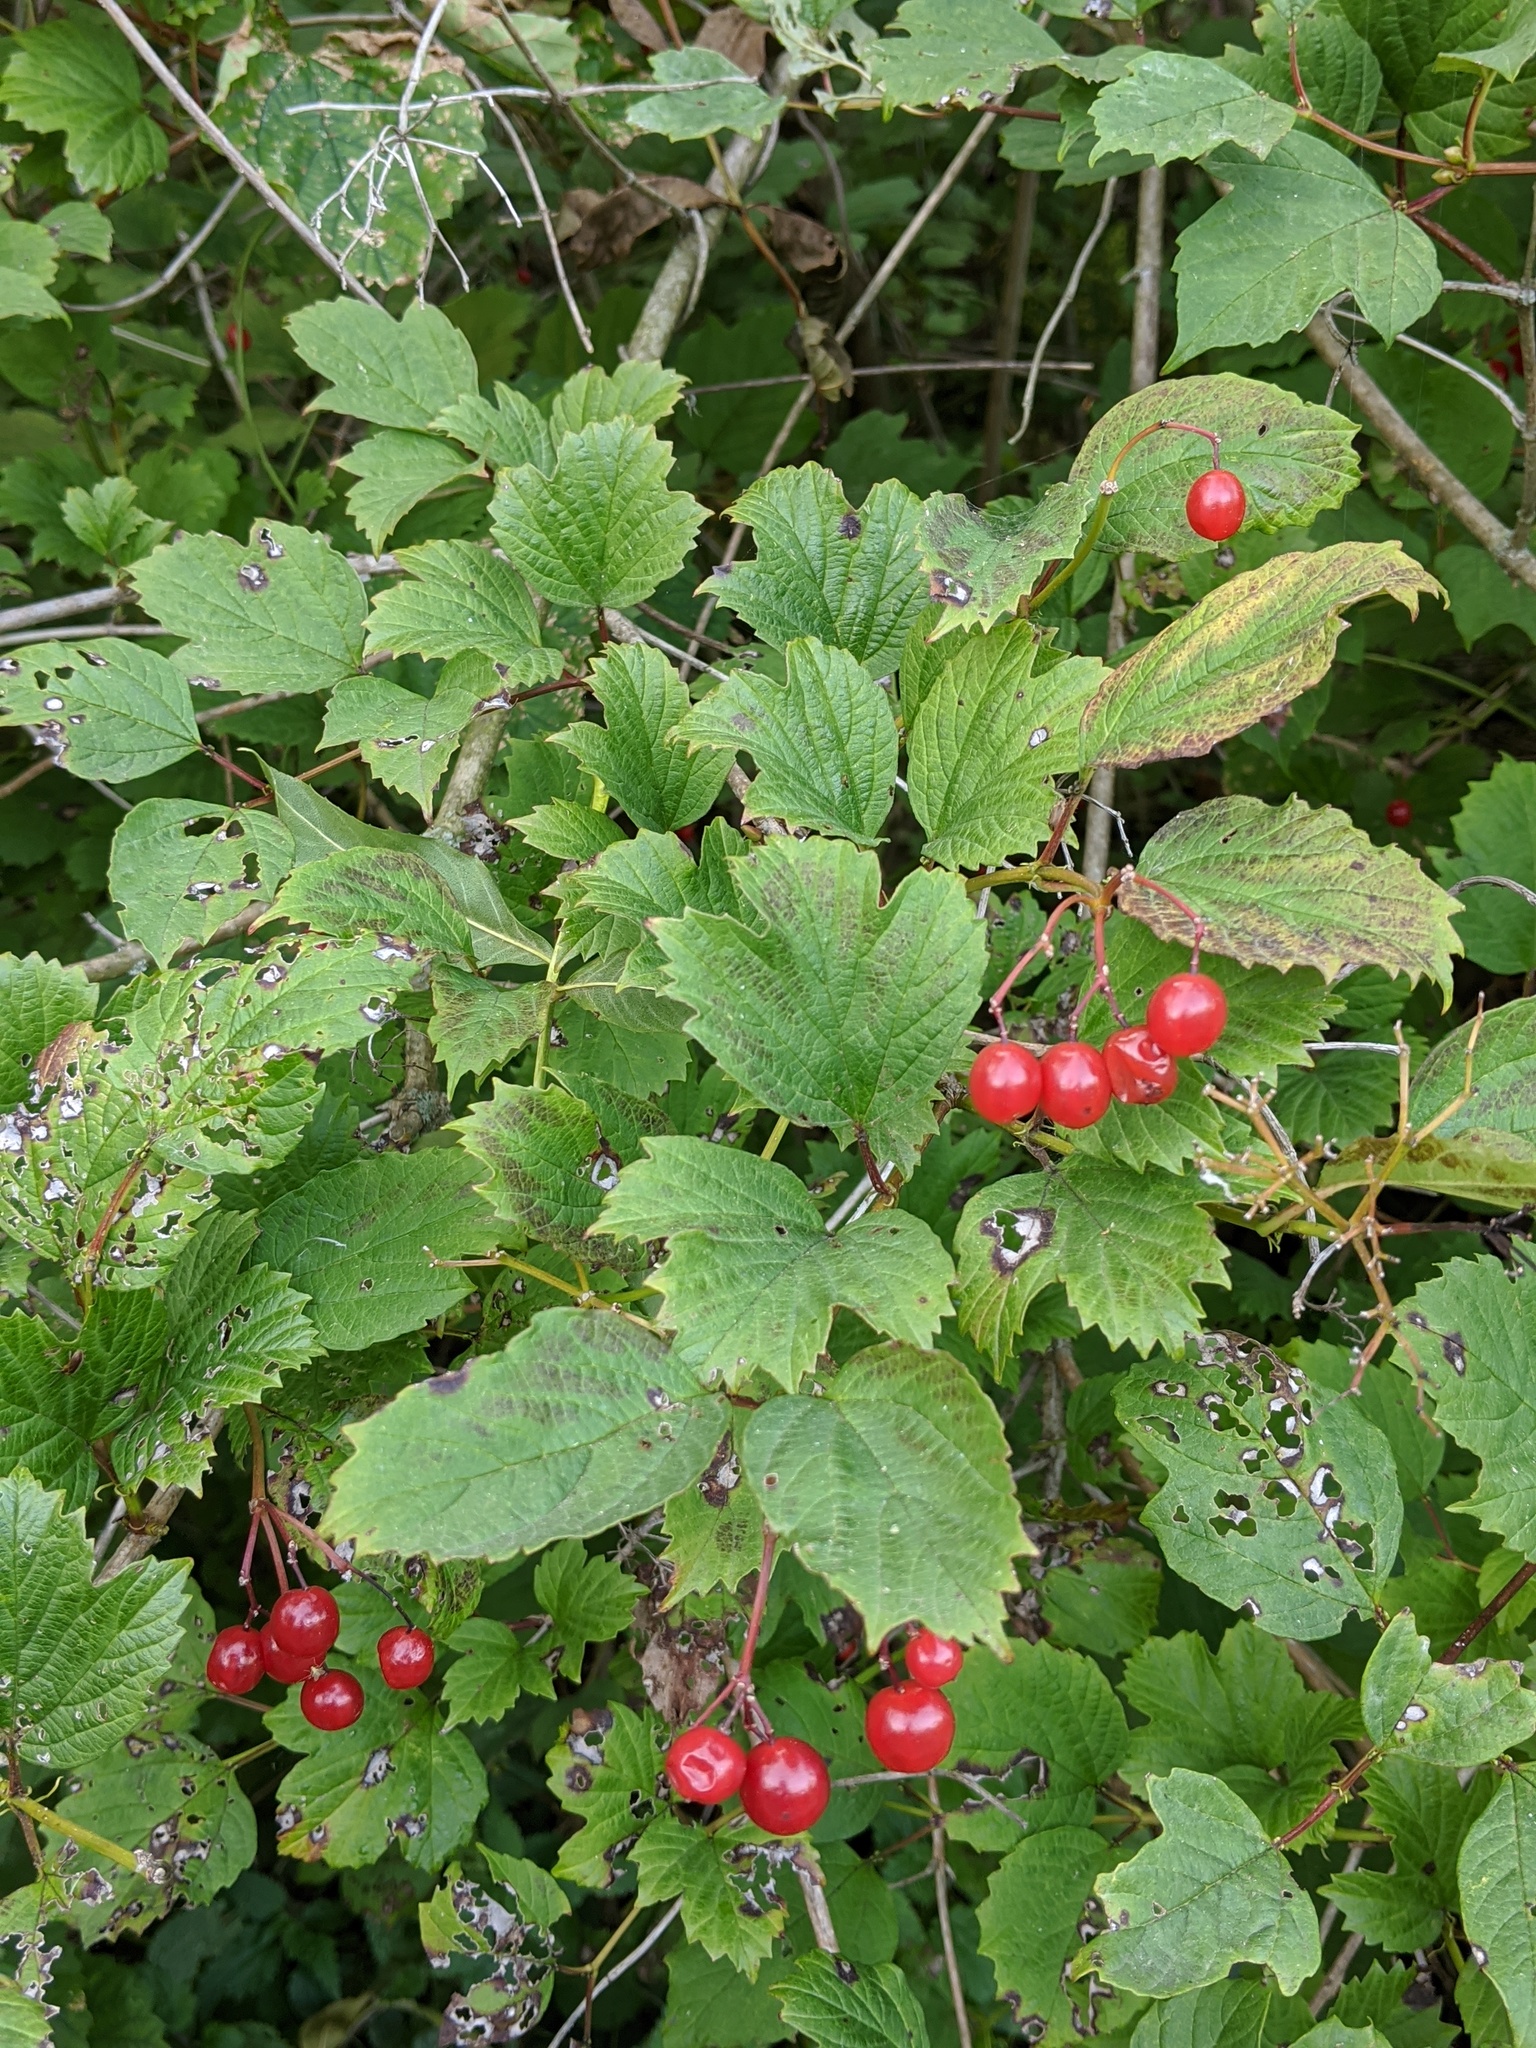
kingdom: Plantae
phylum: Tracheophyta
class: Magnoliopsida
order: Dipsacales
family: Viburnaceae
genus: Viburnum
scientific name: Viburnum opulus
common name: Guelder-rose
